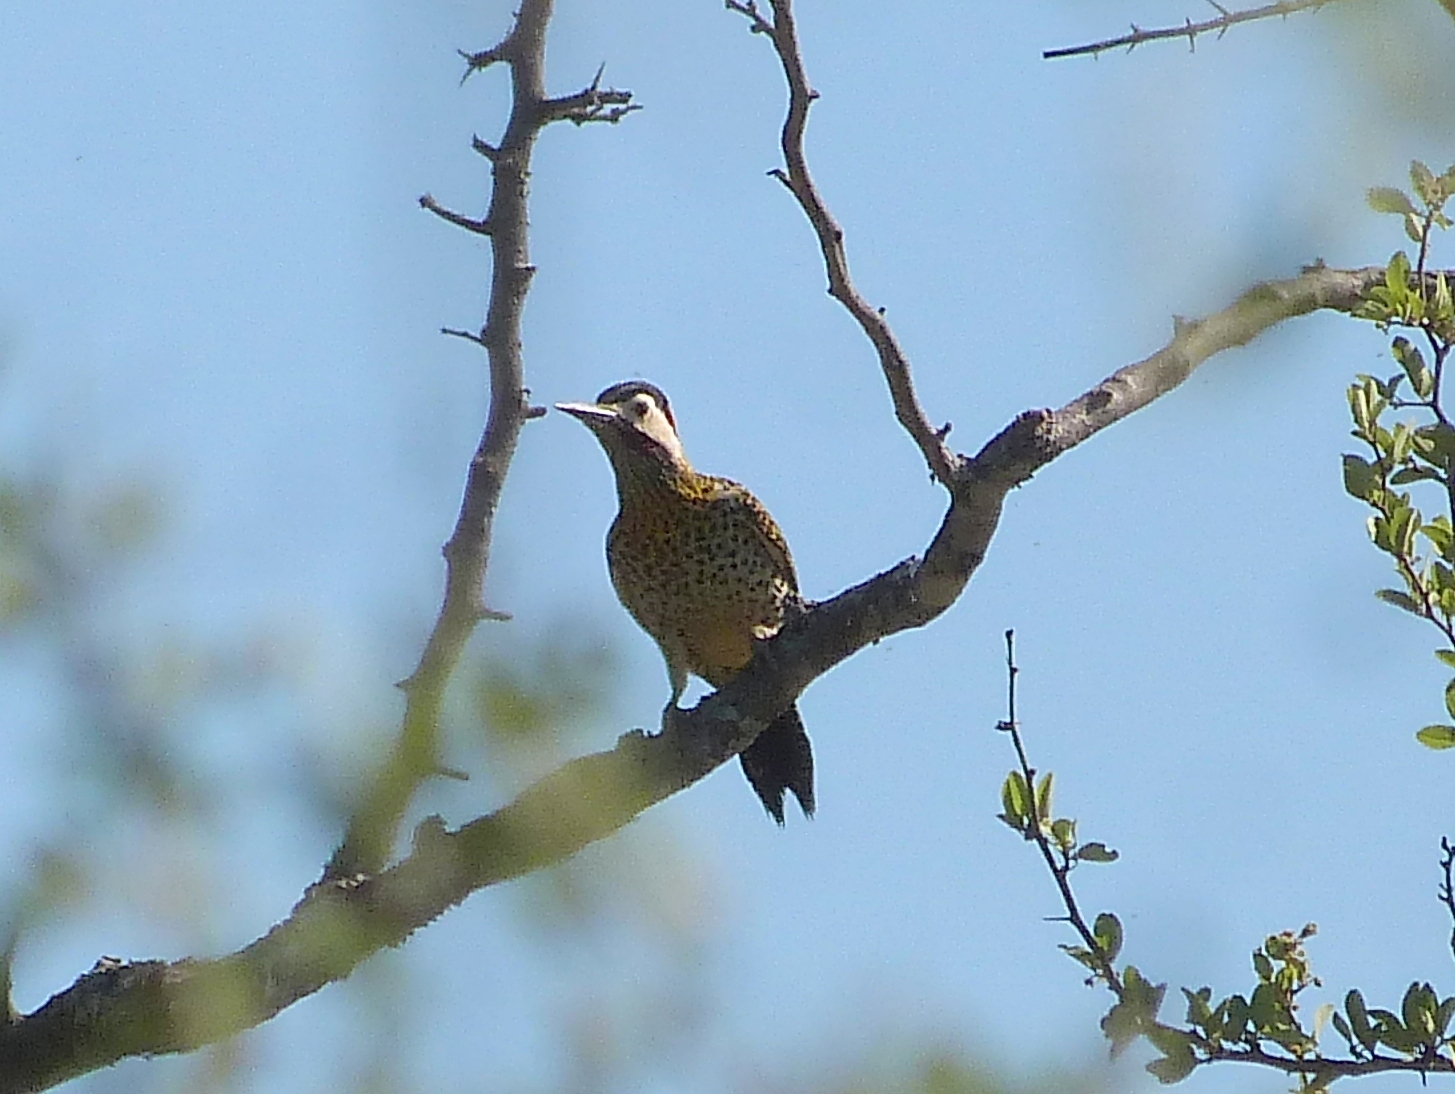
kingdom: Animalia
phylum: Chordata
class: Aves
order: Piciformes
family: Picidae
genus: Colaptes
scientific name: Colaptes melanochloros
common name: Green-barred woodpecker
